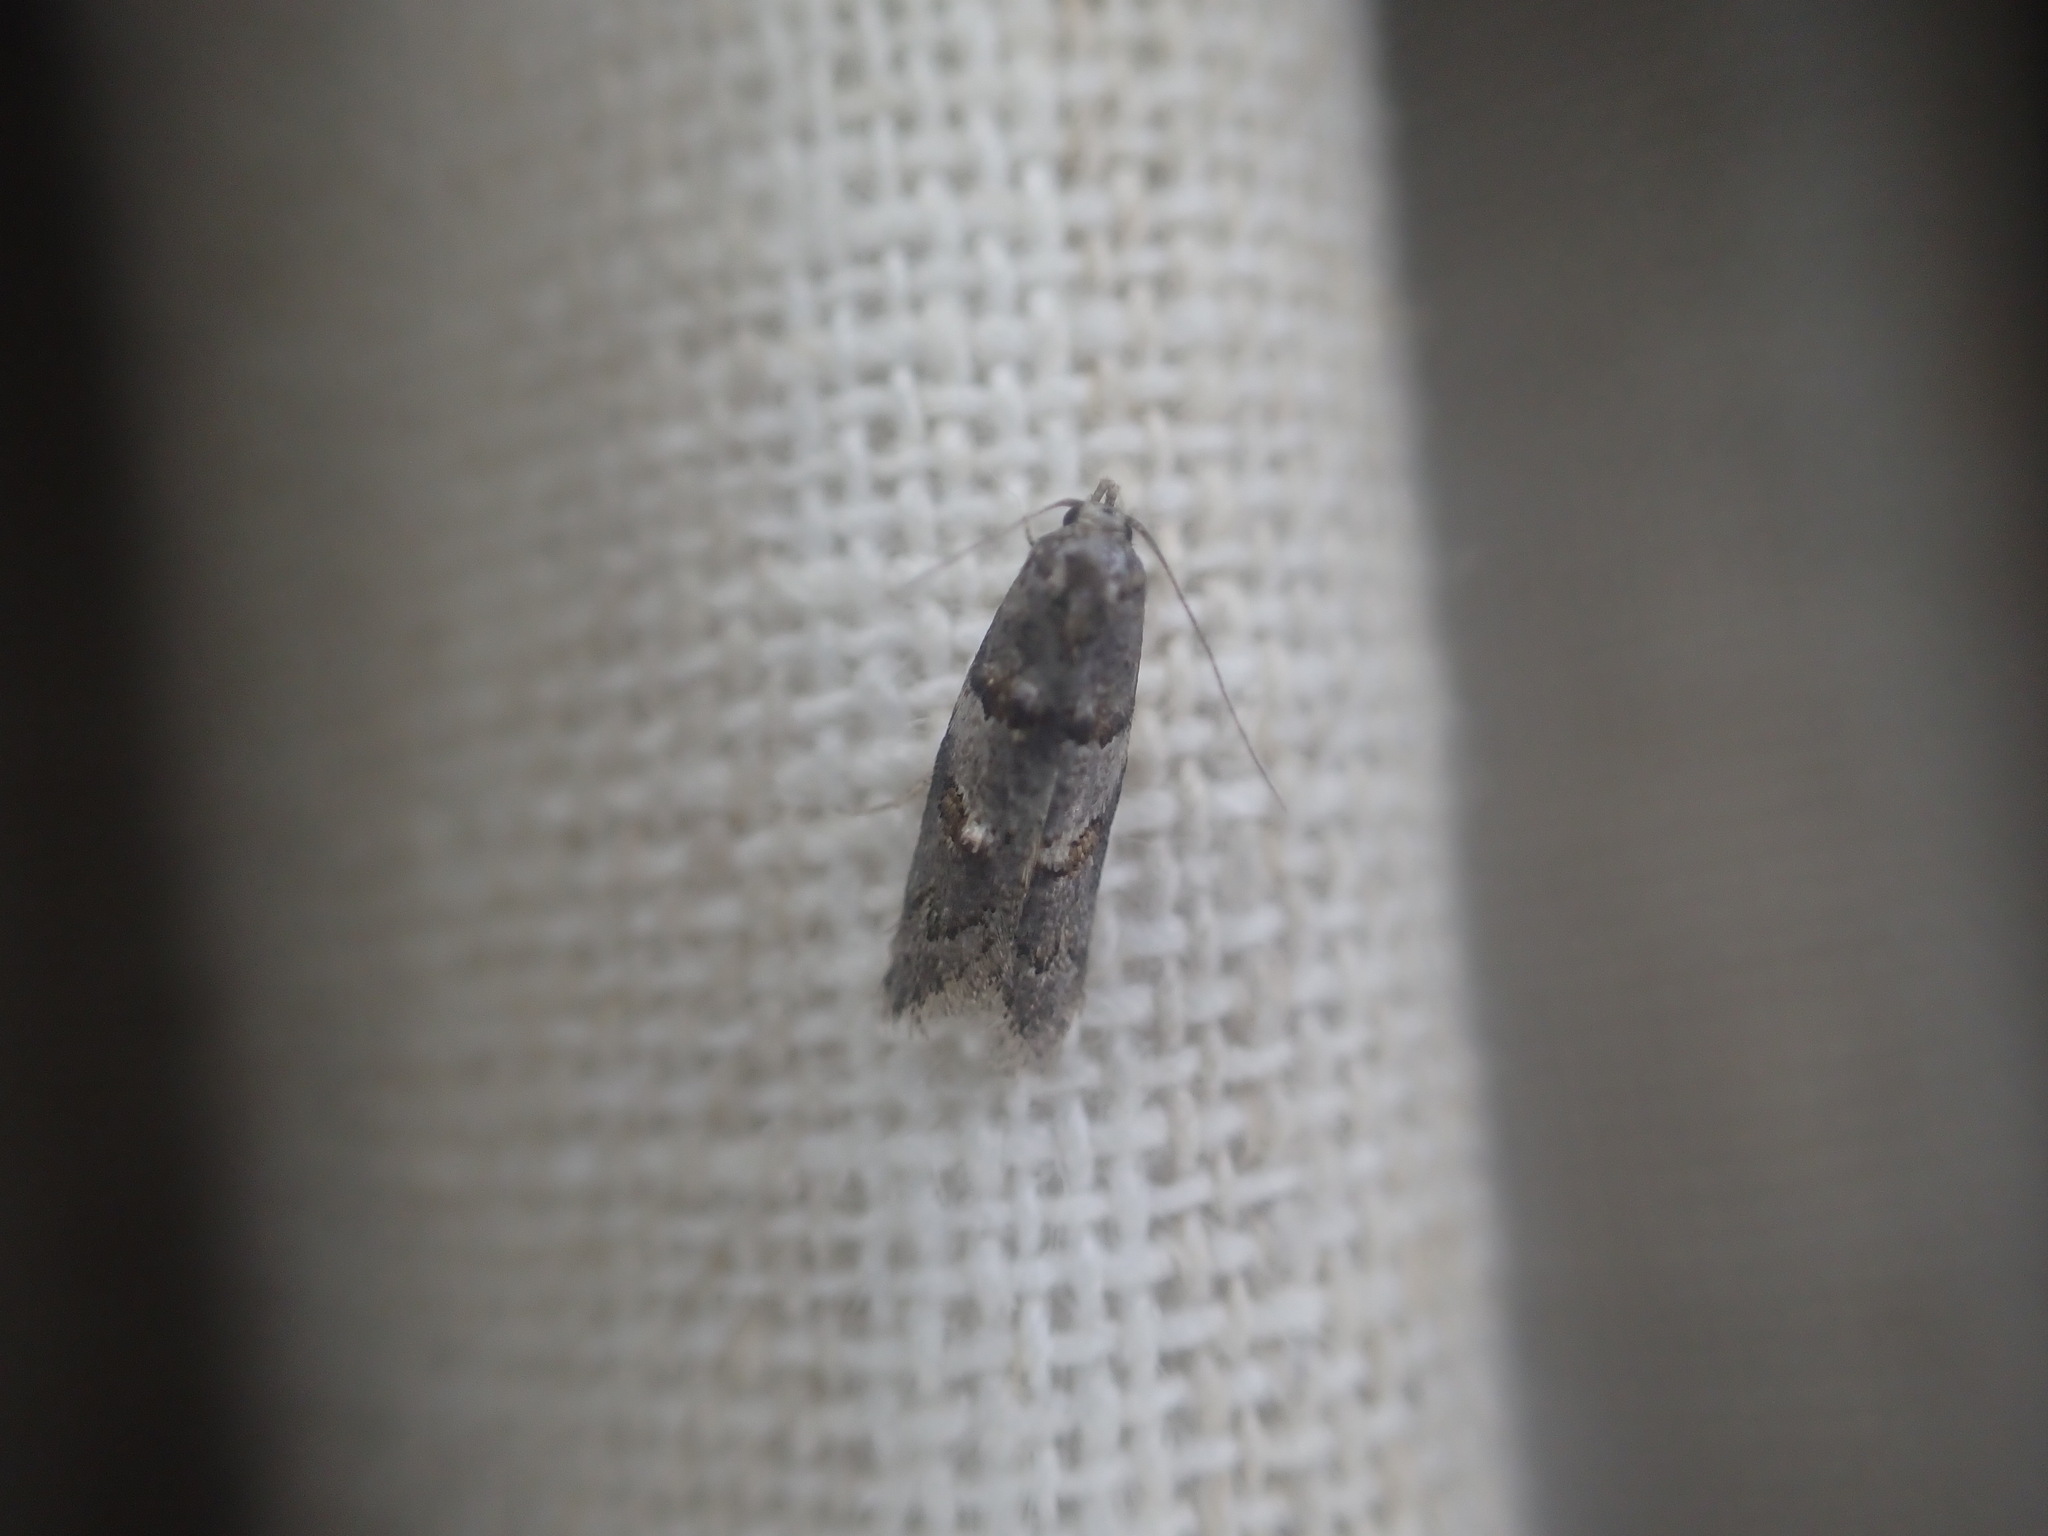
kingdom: Animalia
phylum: Arthropoda
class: Insecta
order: Lepidoptera
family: Oecophoridae
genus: Trachypepla
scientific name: Trachypepla contritella
